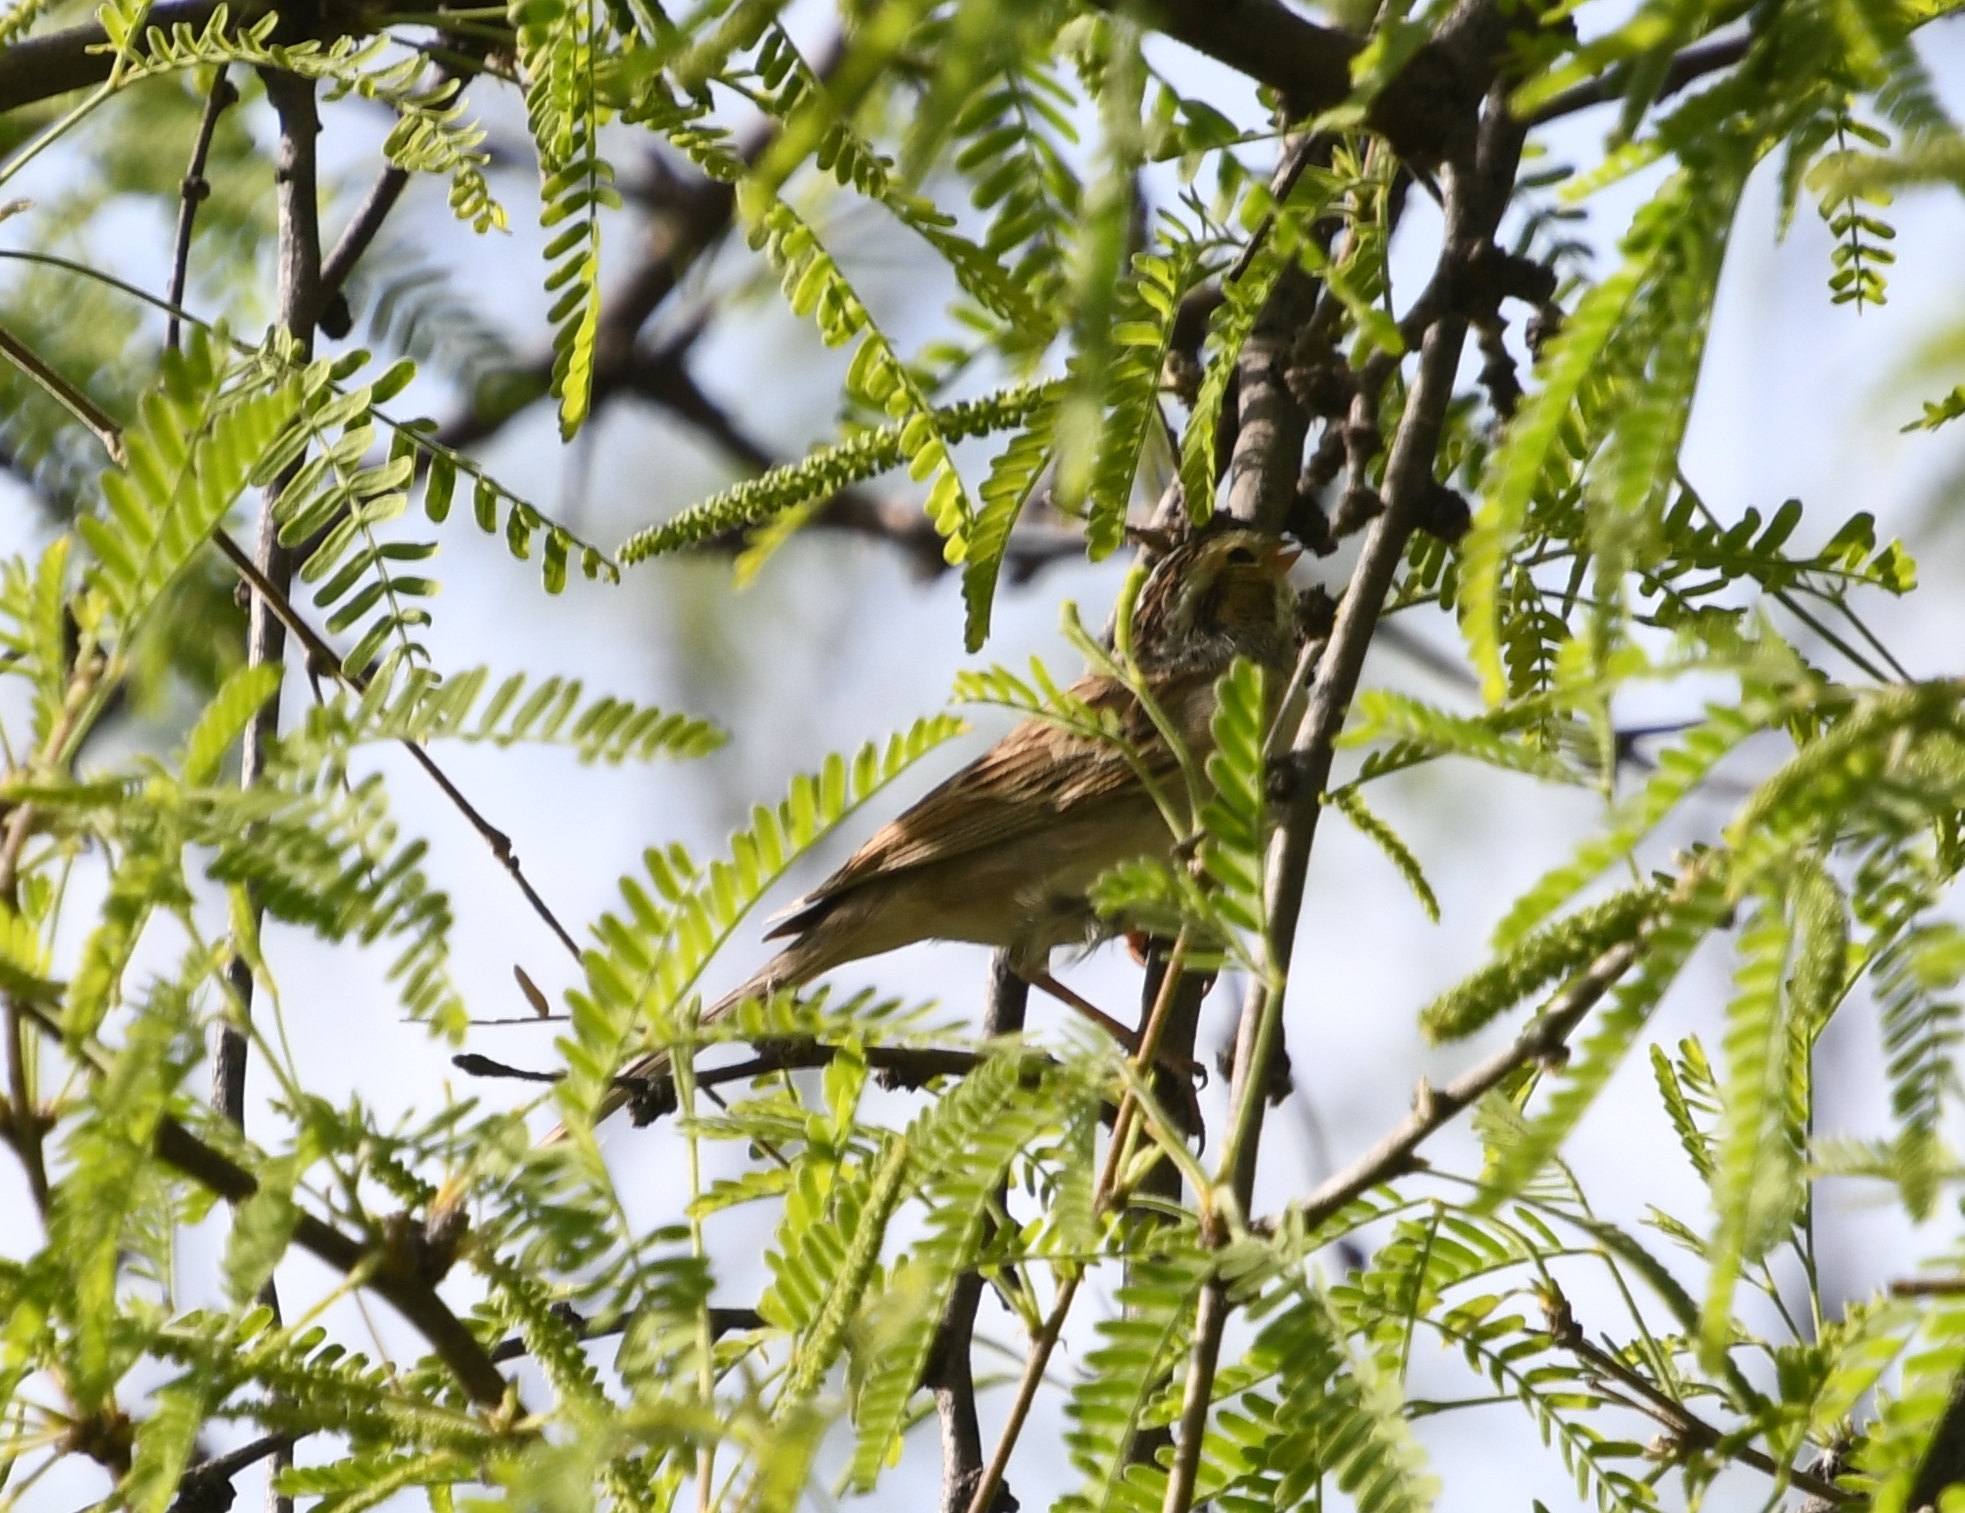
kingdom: Animalia
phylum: Chordata
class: Aves
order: Passeriformes
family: Passerellidae
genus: Spizella
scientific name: Spizella pallida
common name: Clay-colored sparrow
